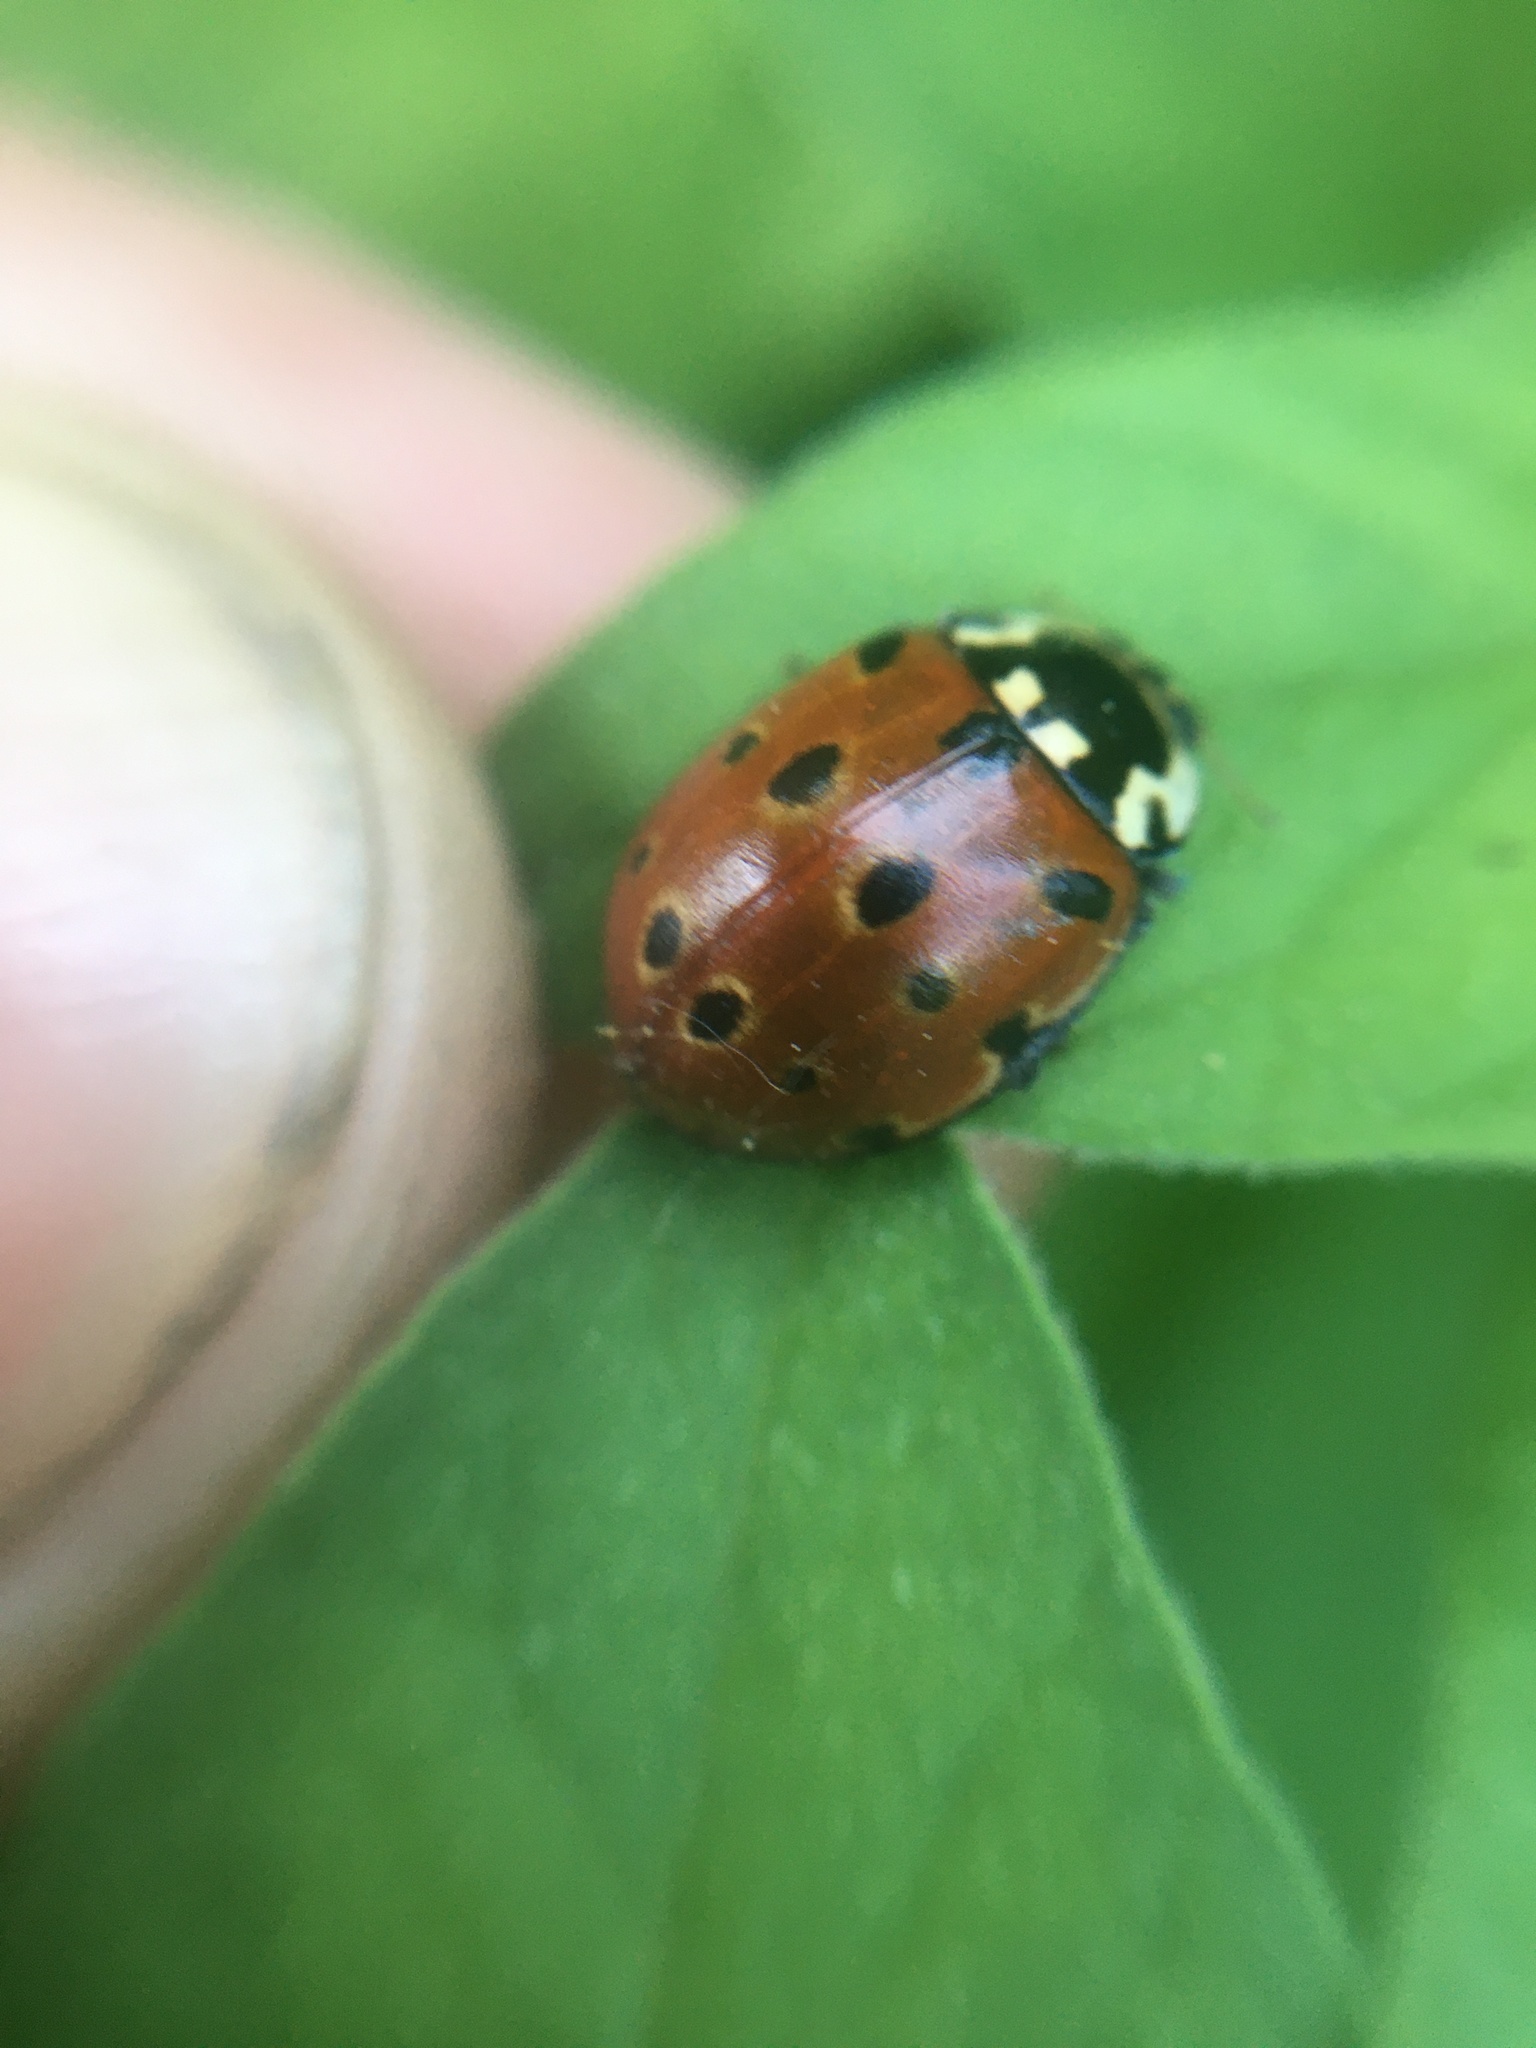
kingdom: Animalia
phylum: Arthropoda
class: Insecta
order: Coleoptera
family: Coccinellidae
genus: Anatis
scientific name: Anatis ocellata
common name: Eyed ladybird
